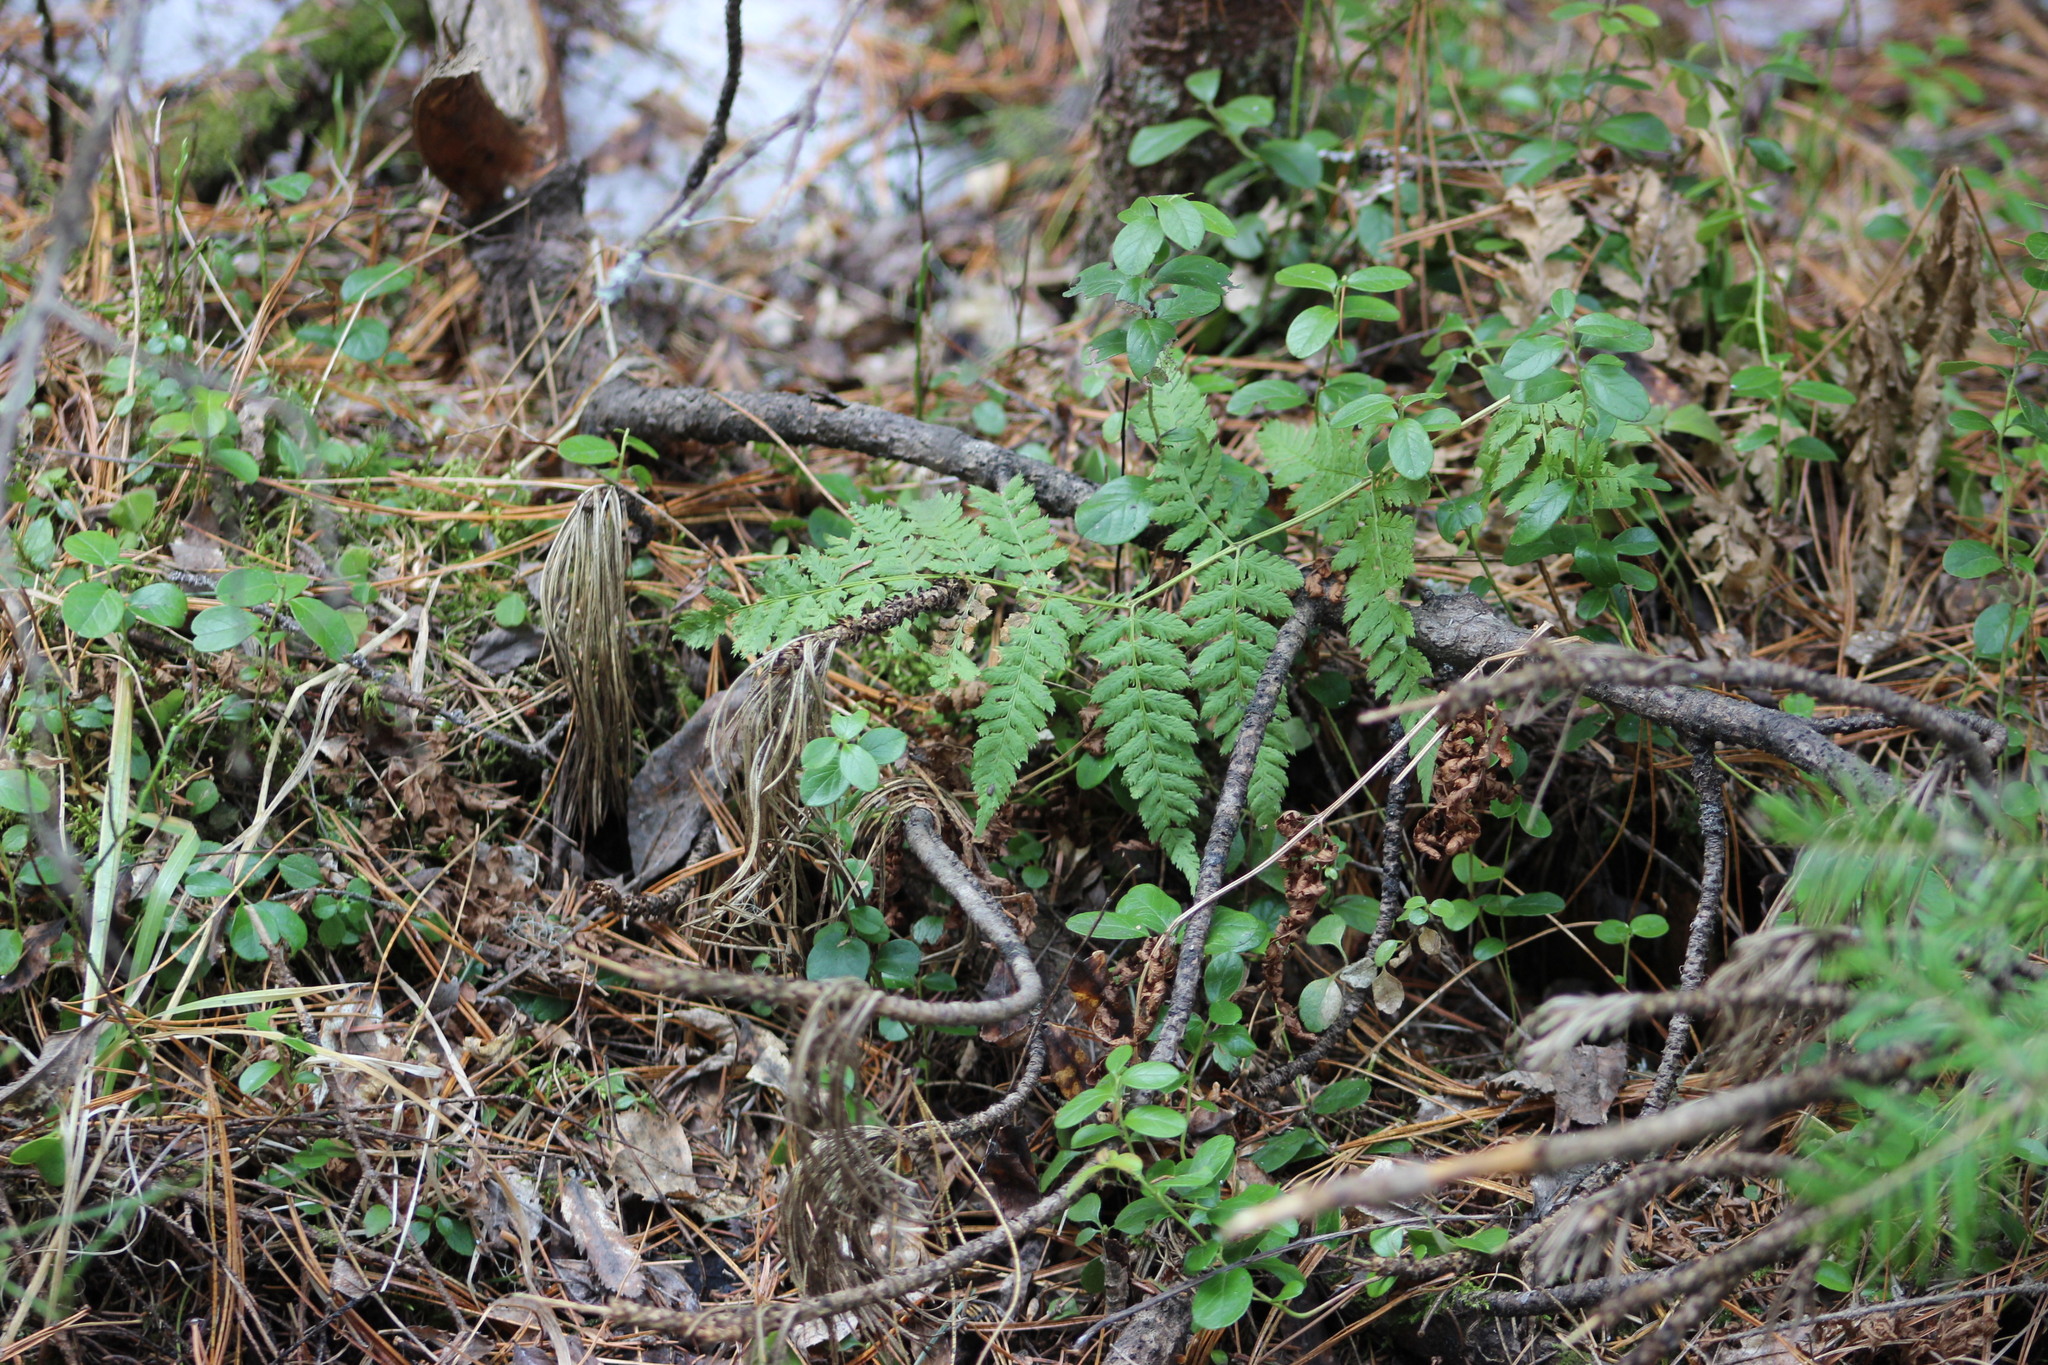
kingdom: Plantae
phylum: Tracheophyta
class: Polypodiopsida
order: Polypodiales
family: Dryopteridaceae
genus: Dryopteris
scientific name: Dryopteris carthusiana
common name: Narrow buckler-fern
